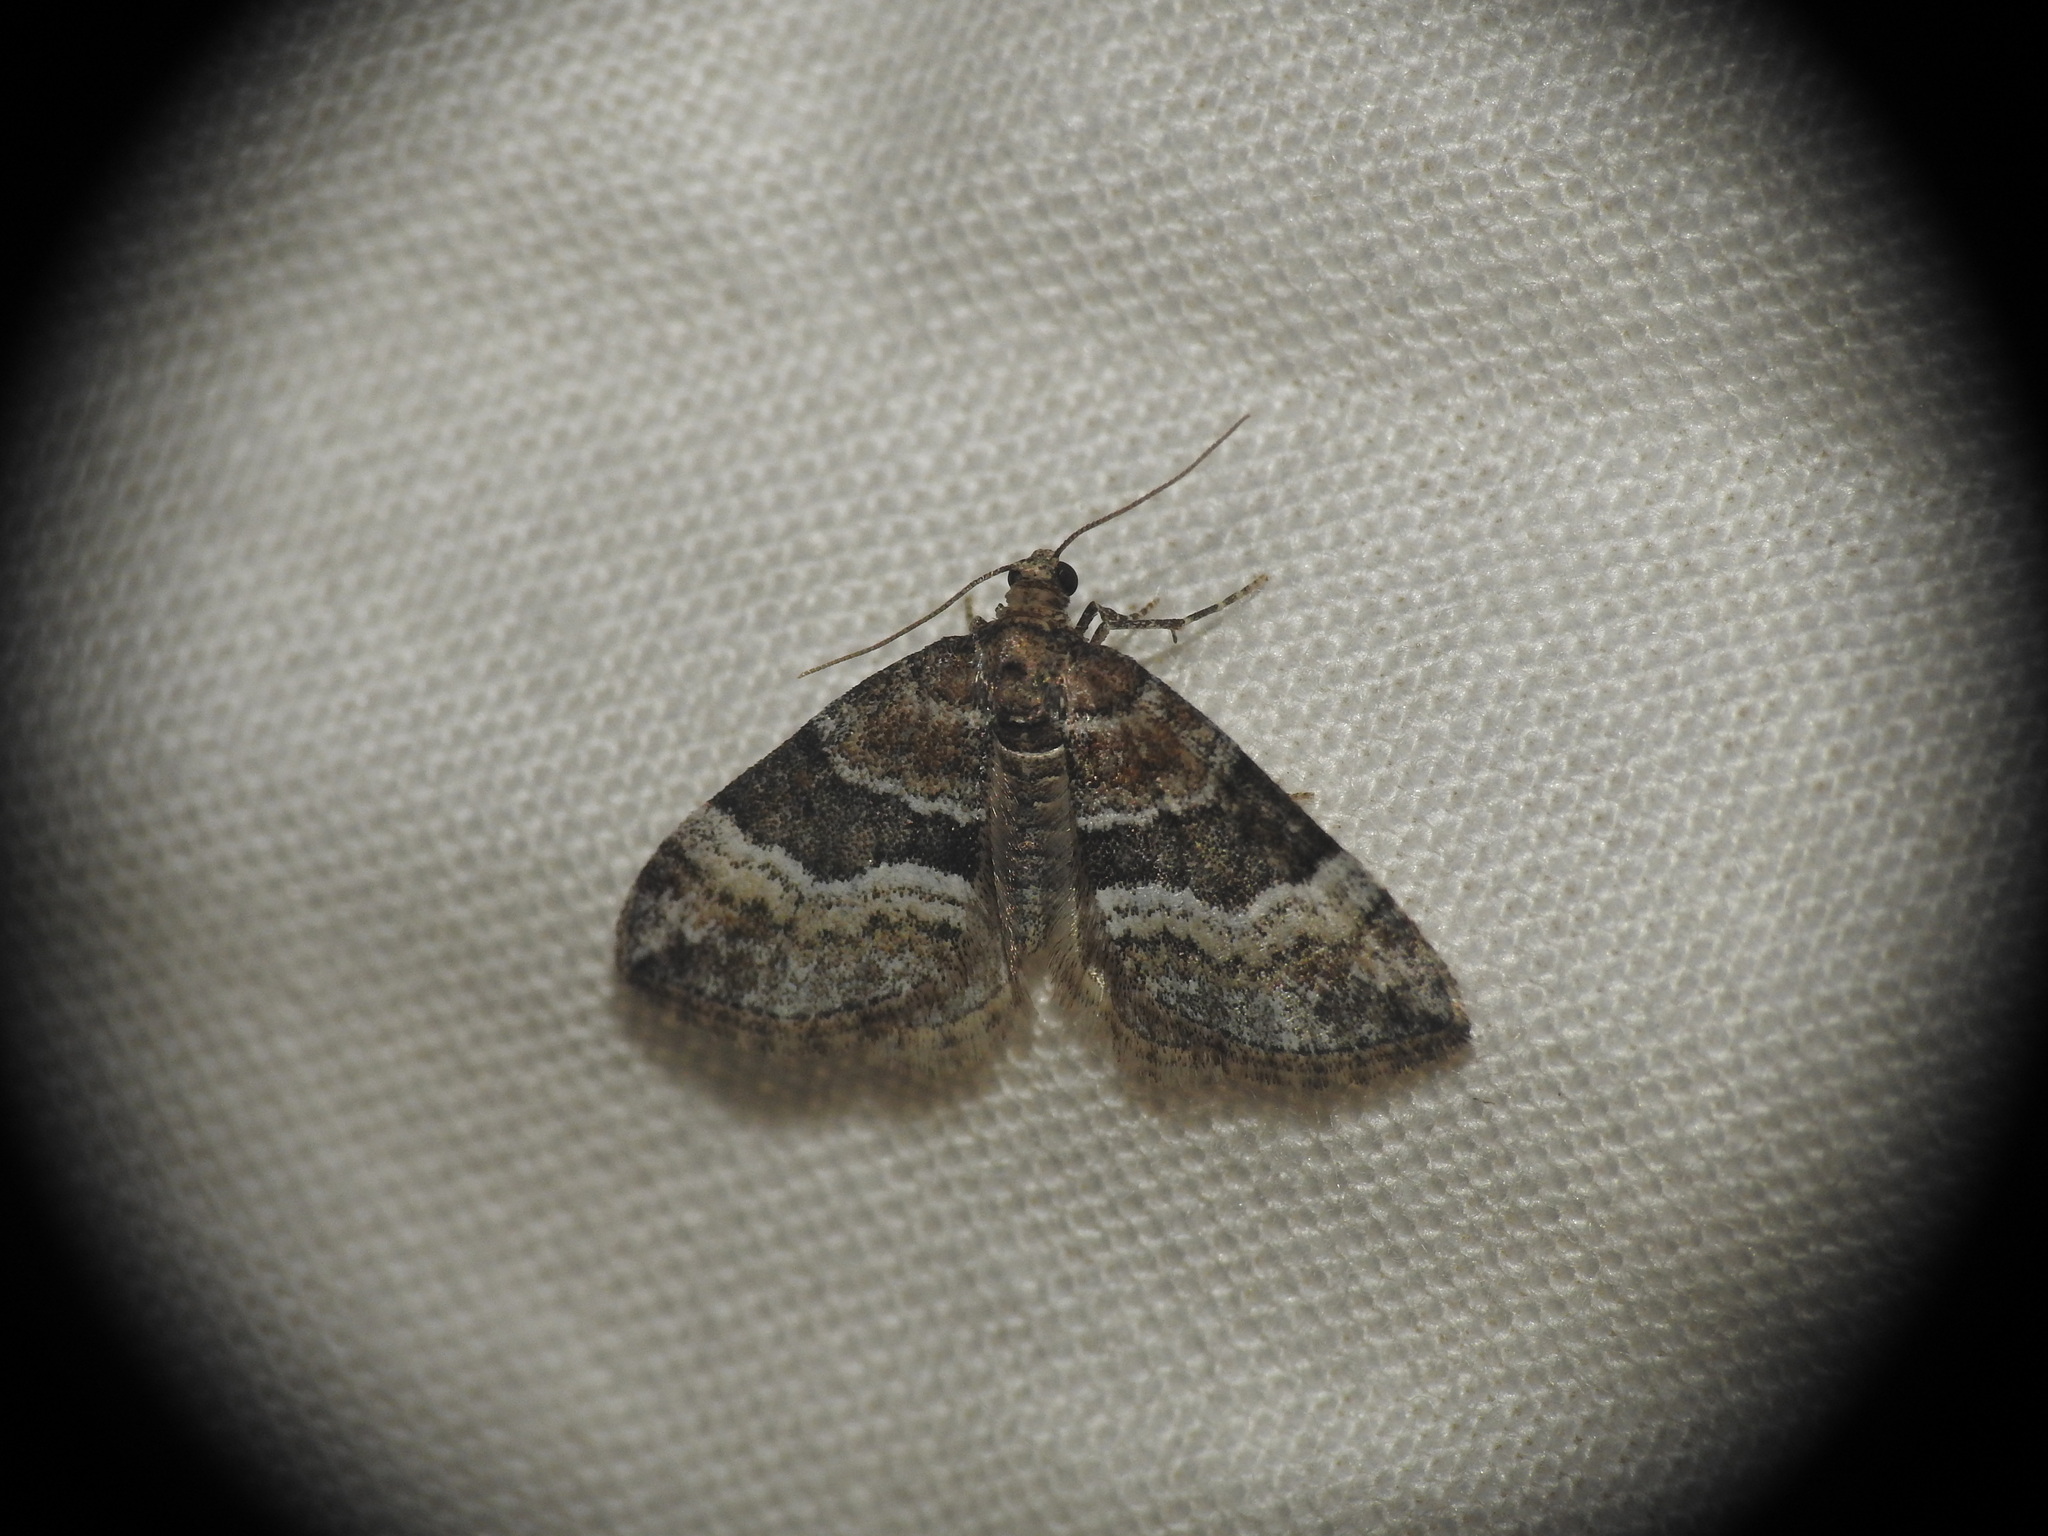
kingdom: Animalia
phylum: Arthropoda
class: Insecta
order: Lepidoptera
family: Geometridae
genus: Perizoma
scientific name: Perizoma bifaciata
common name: Barred rivulet
